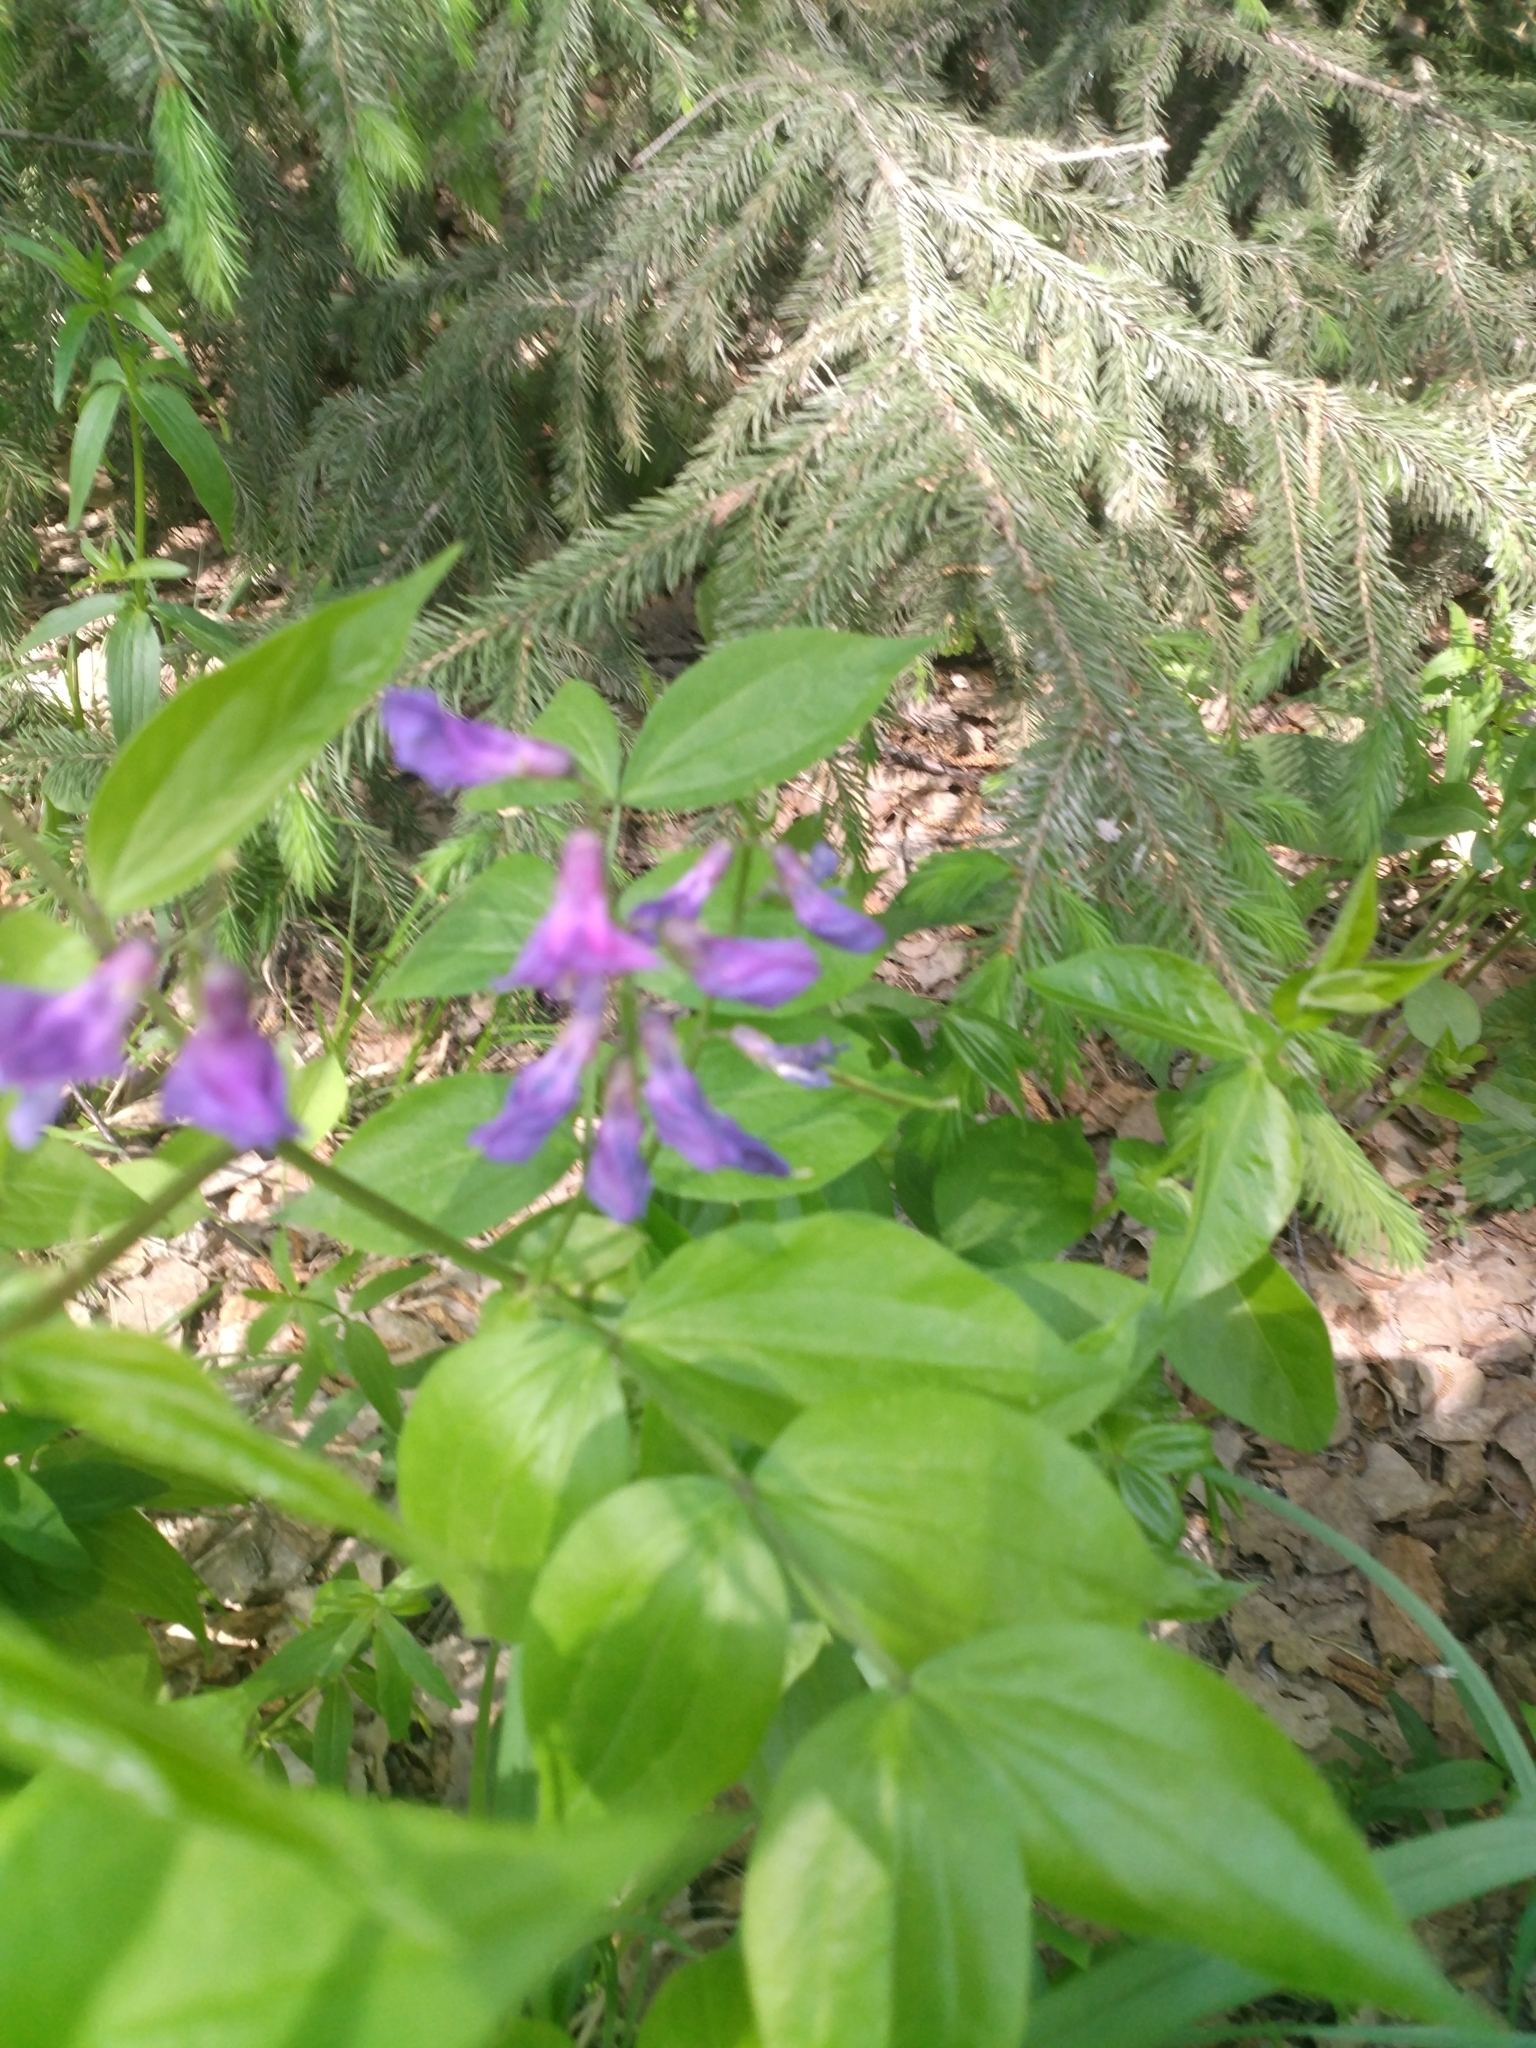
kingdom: Plantae
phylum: Tracheophyta
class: Magnoliopsida
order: Fabales
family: Fabaceae
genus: Lathyrus
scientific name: Lathyrus vernus
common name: Spring pea
